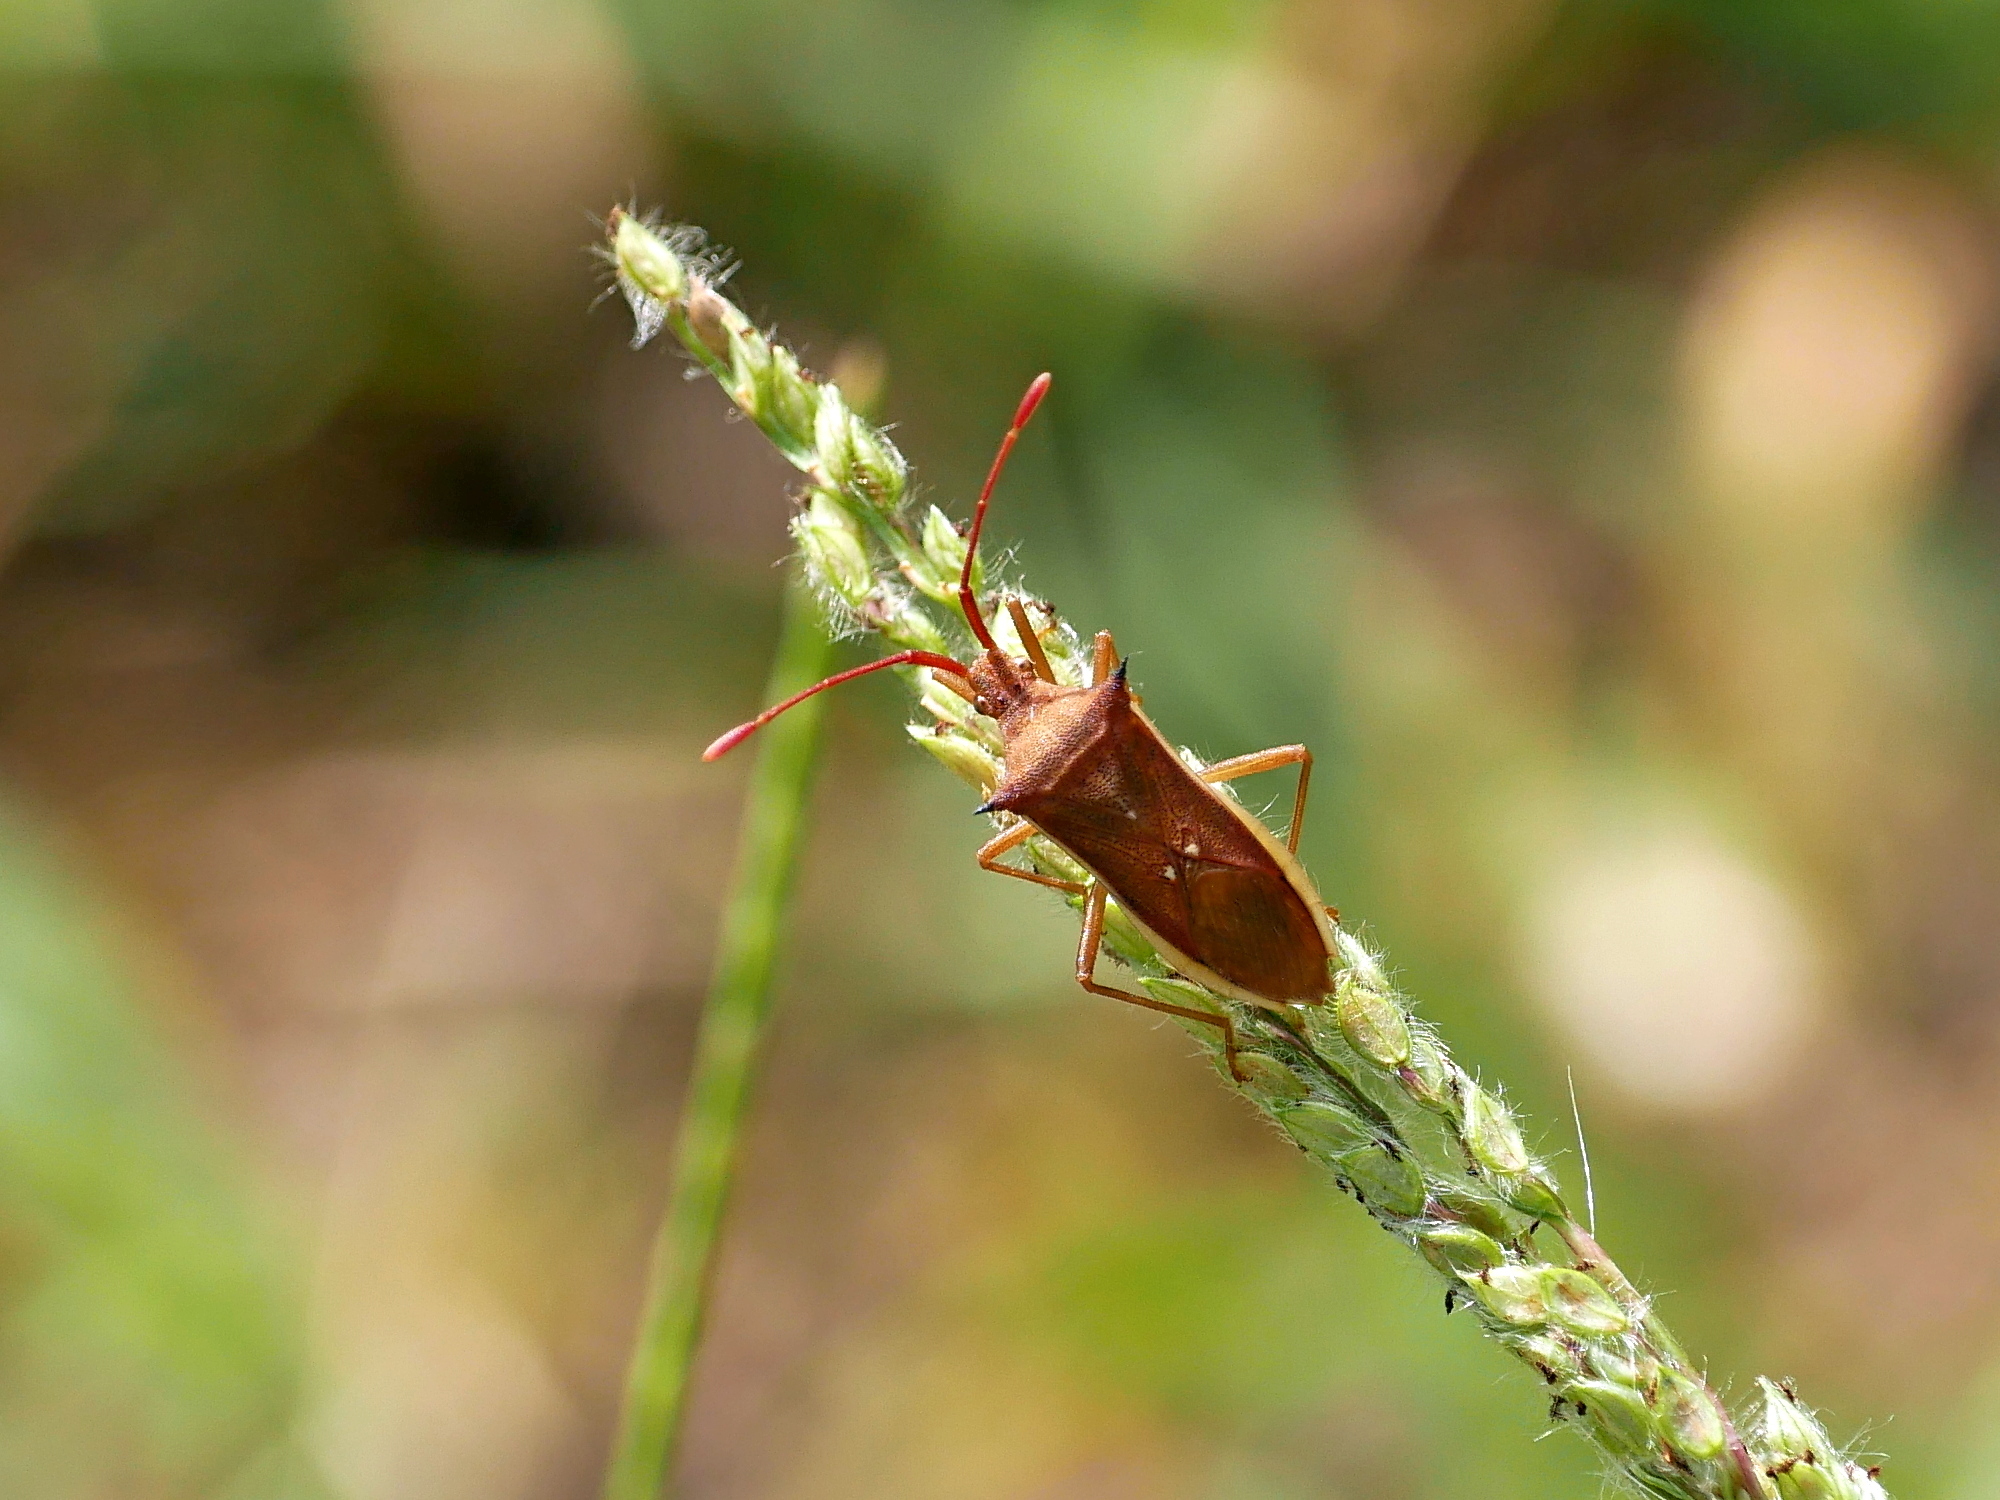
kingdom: Animalia
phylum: Arthropoda
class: Insecta
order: Hemiptera
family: Coreidae
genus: Cletus
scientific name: Cletus trigonus
